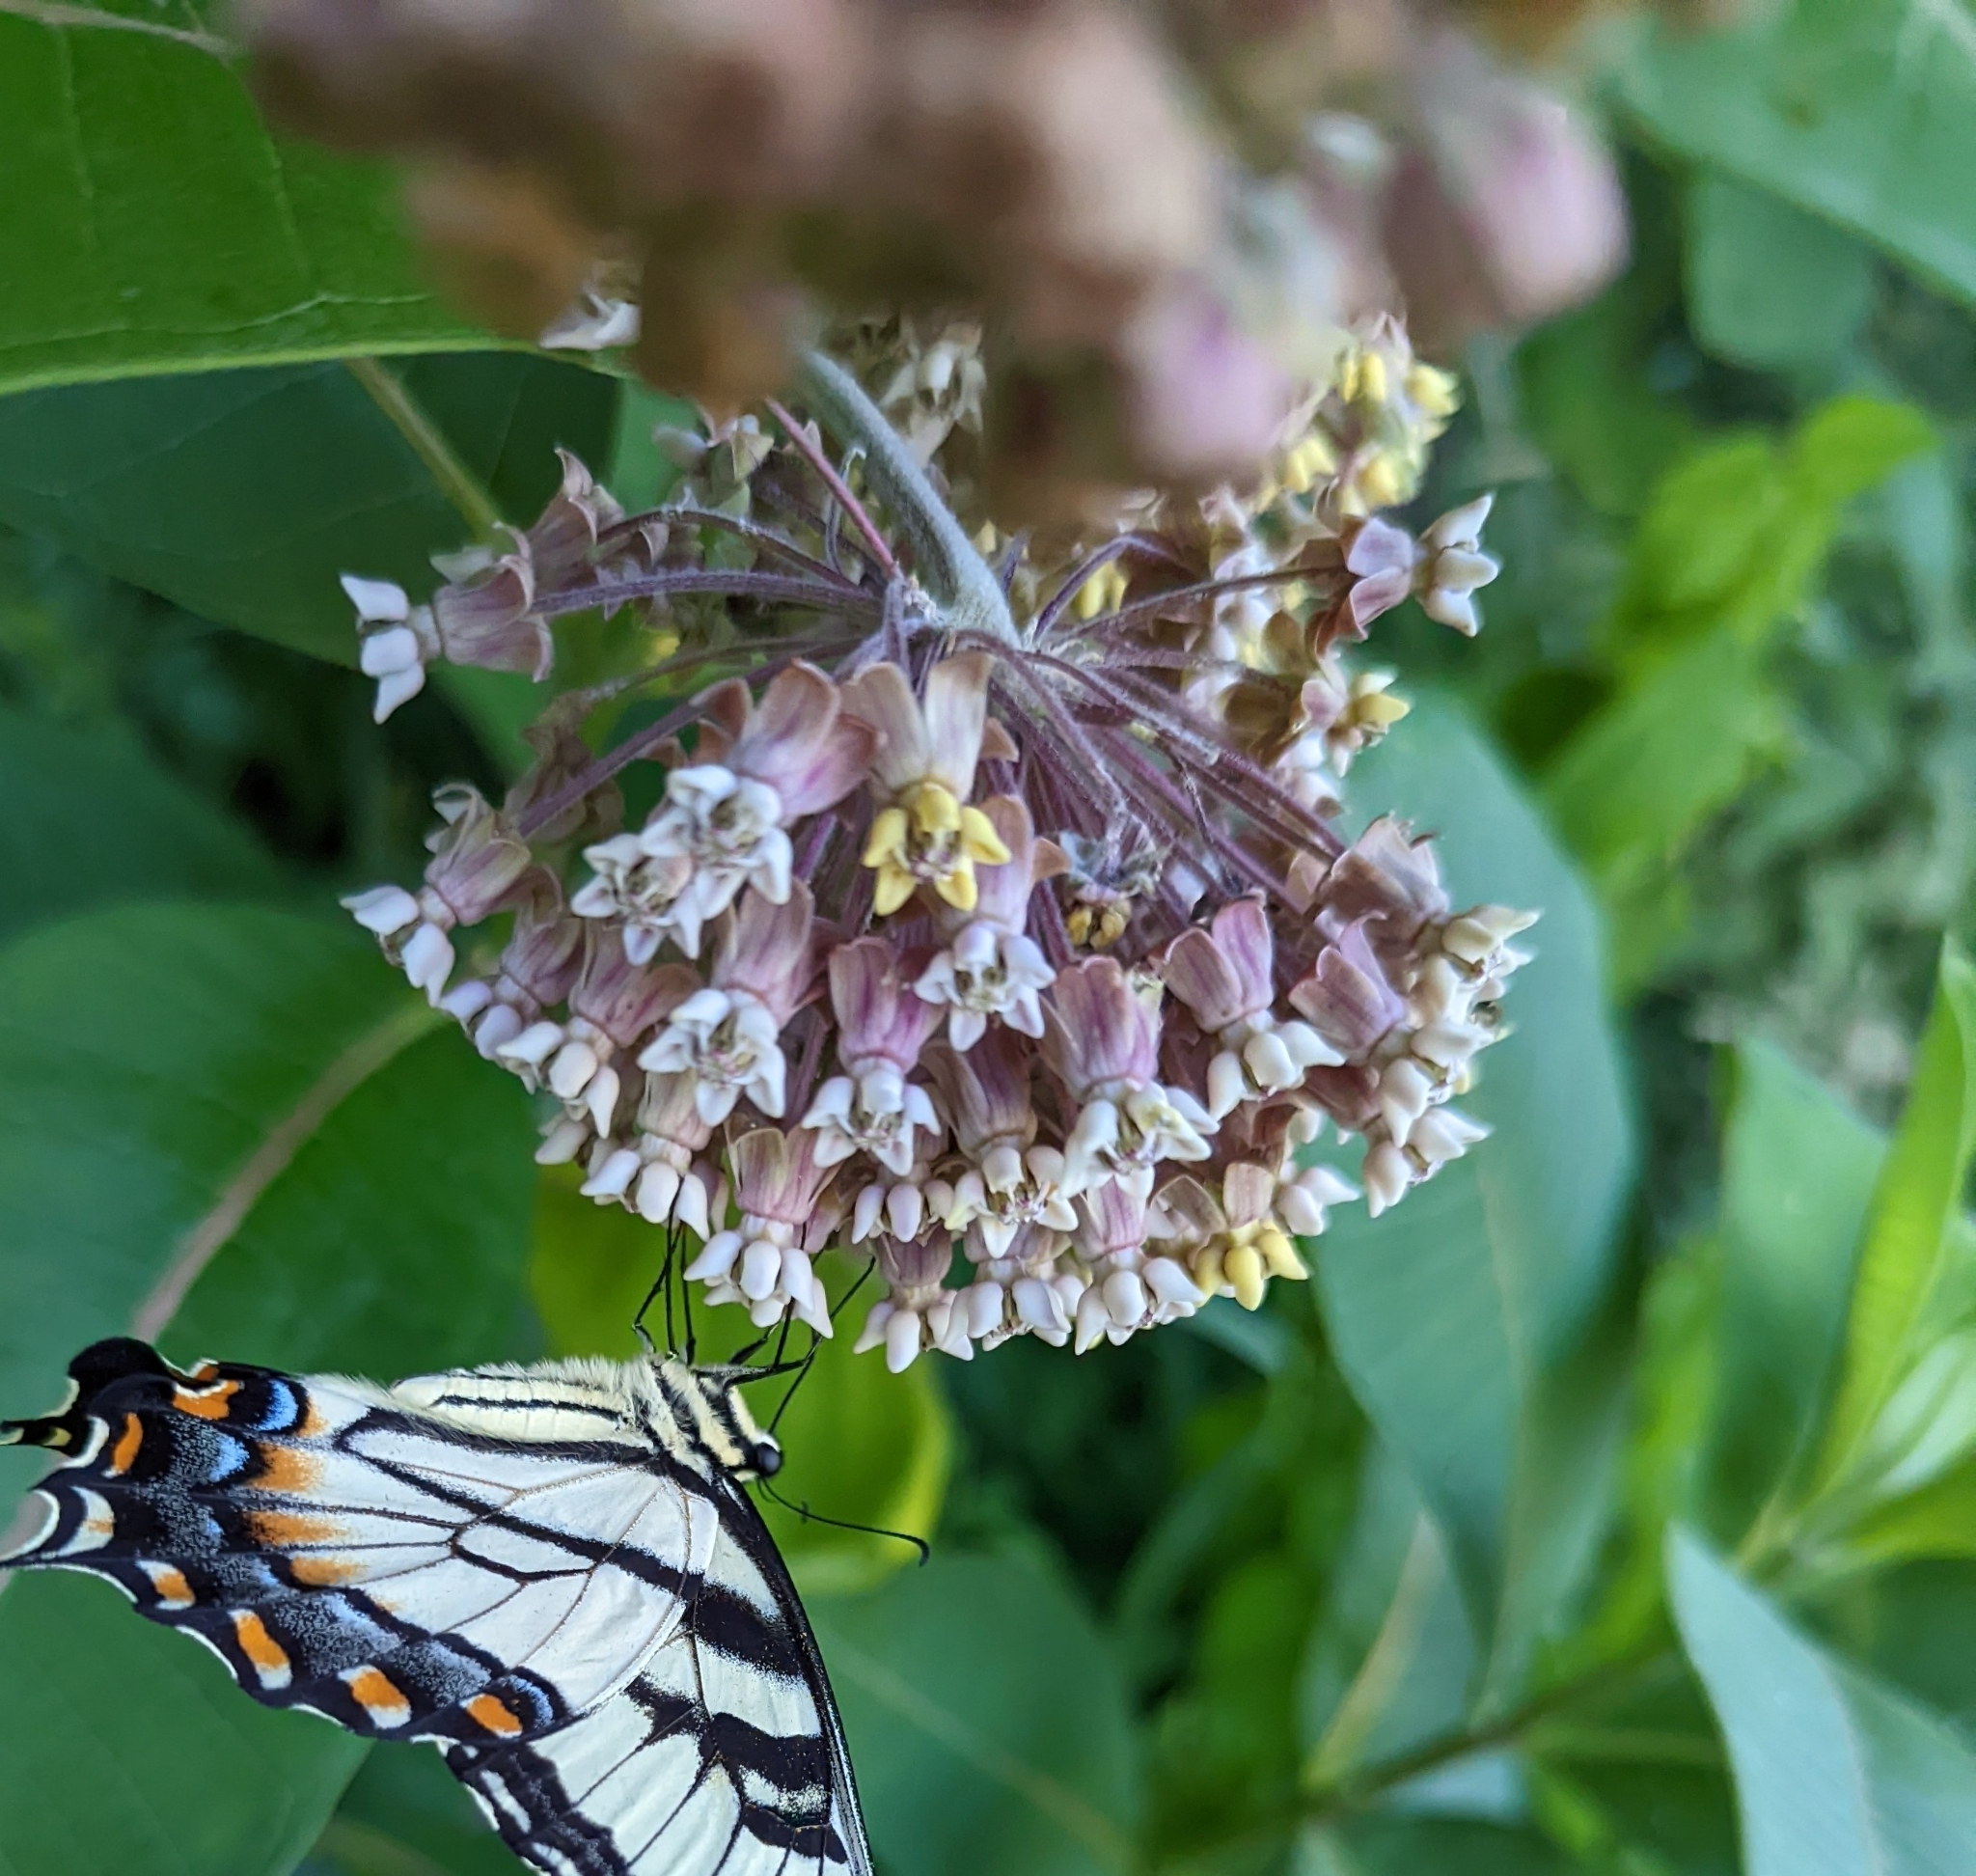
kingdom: Plantae
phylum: Tracheophyta
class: Magnoliopsida
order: Gentianales
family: Apocynaceae
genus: Asclepias
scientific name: Asclepias syriaca
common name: Common milkweed
